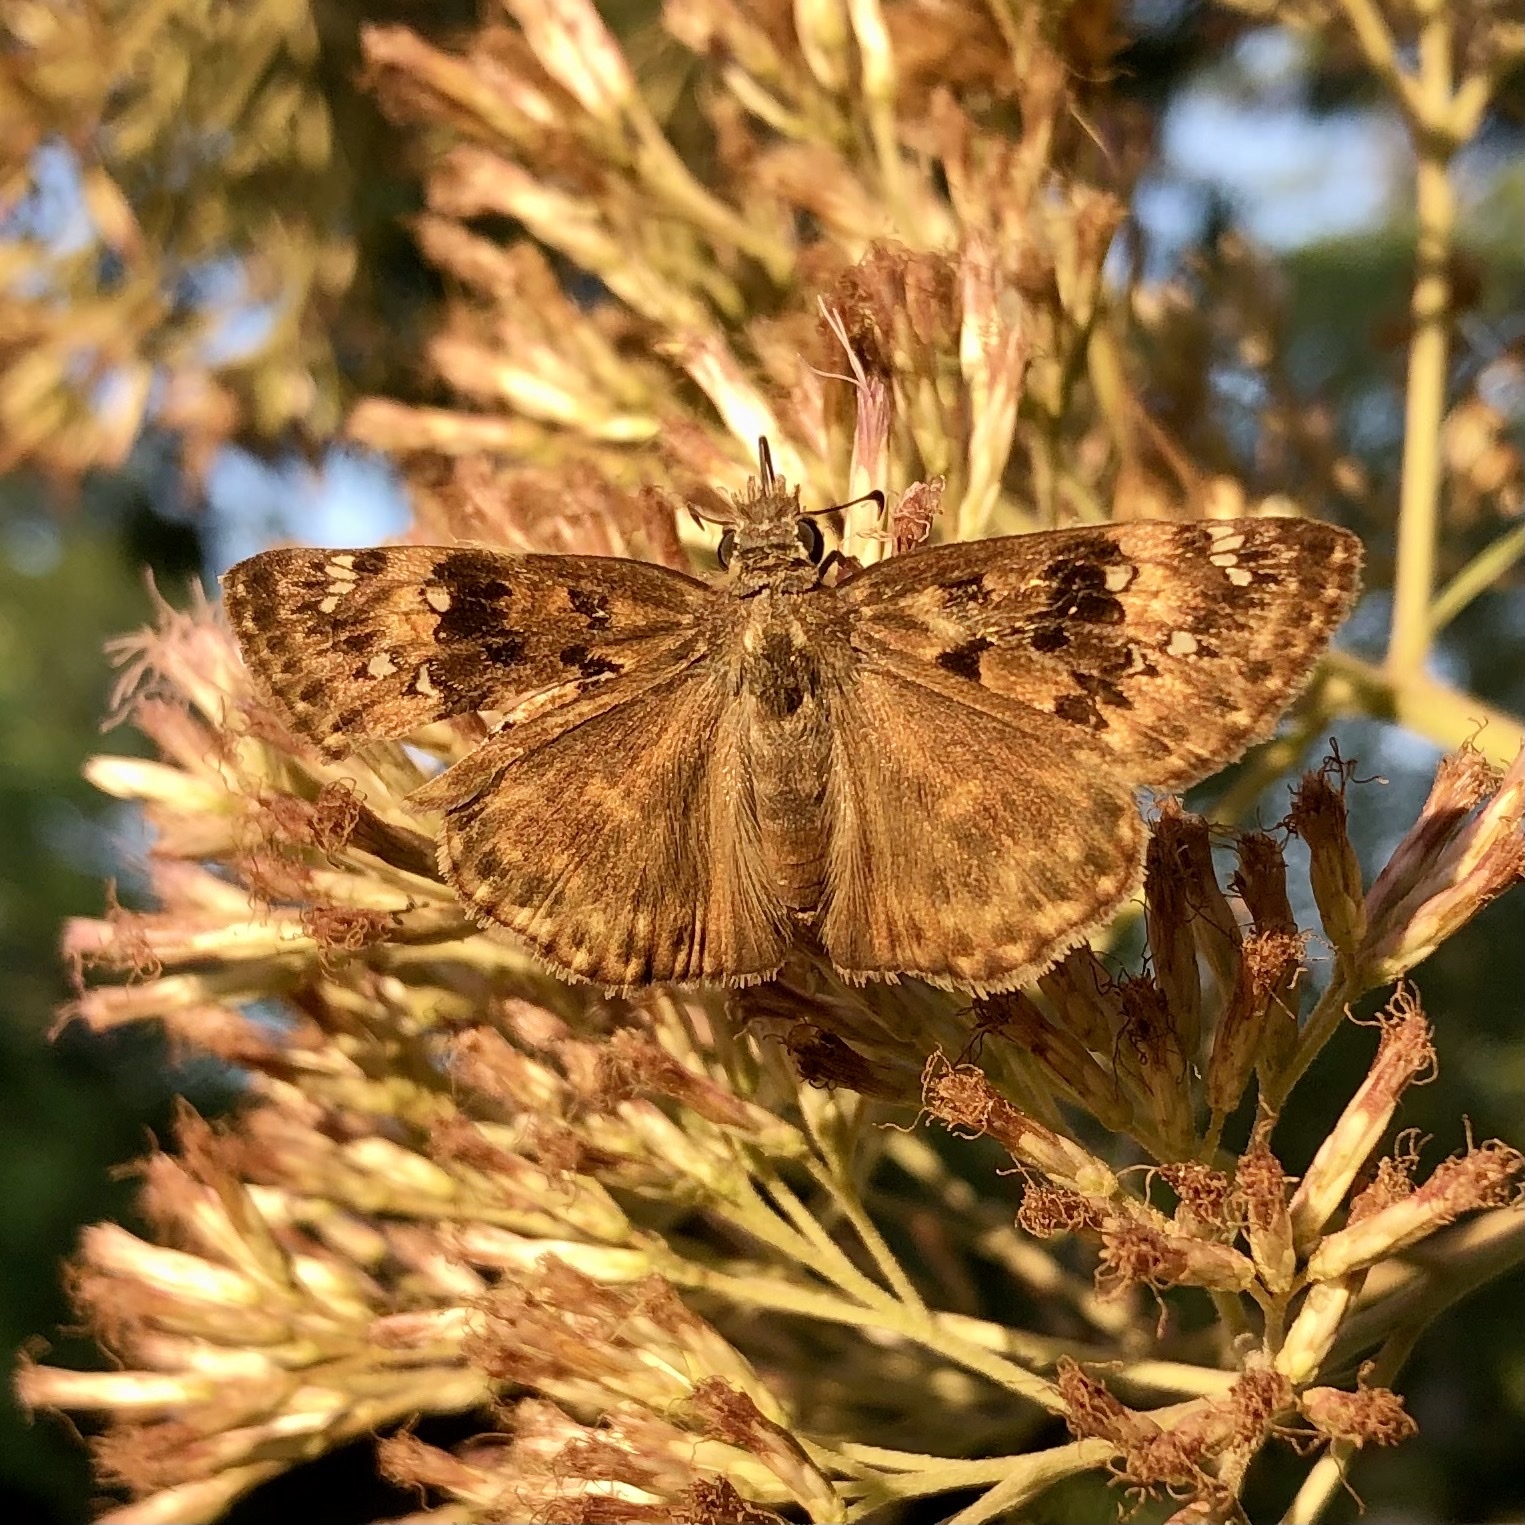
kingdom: Animalia
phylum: Arthropoda
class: Insecta
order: Lepidoptera
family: Hesperiidae
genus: Erynnis
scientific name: Erynnis horatius
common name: Horace's duskywing
